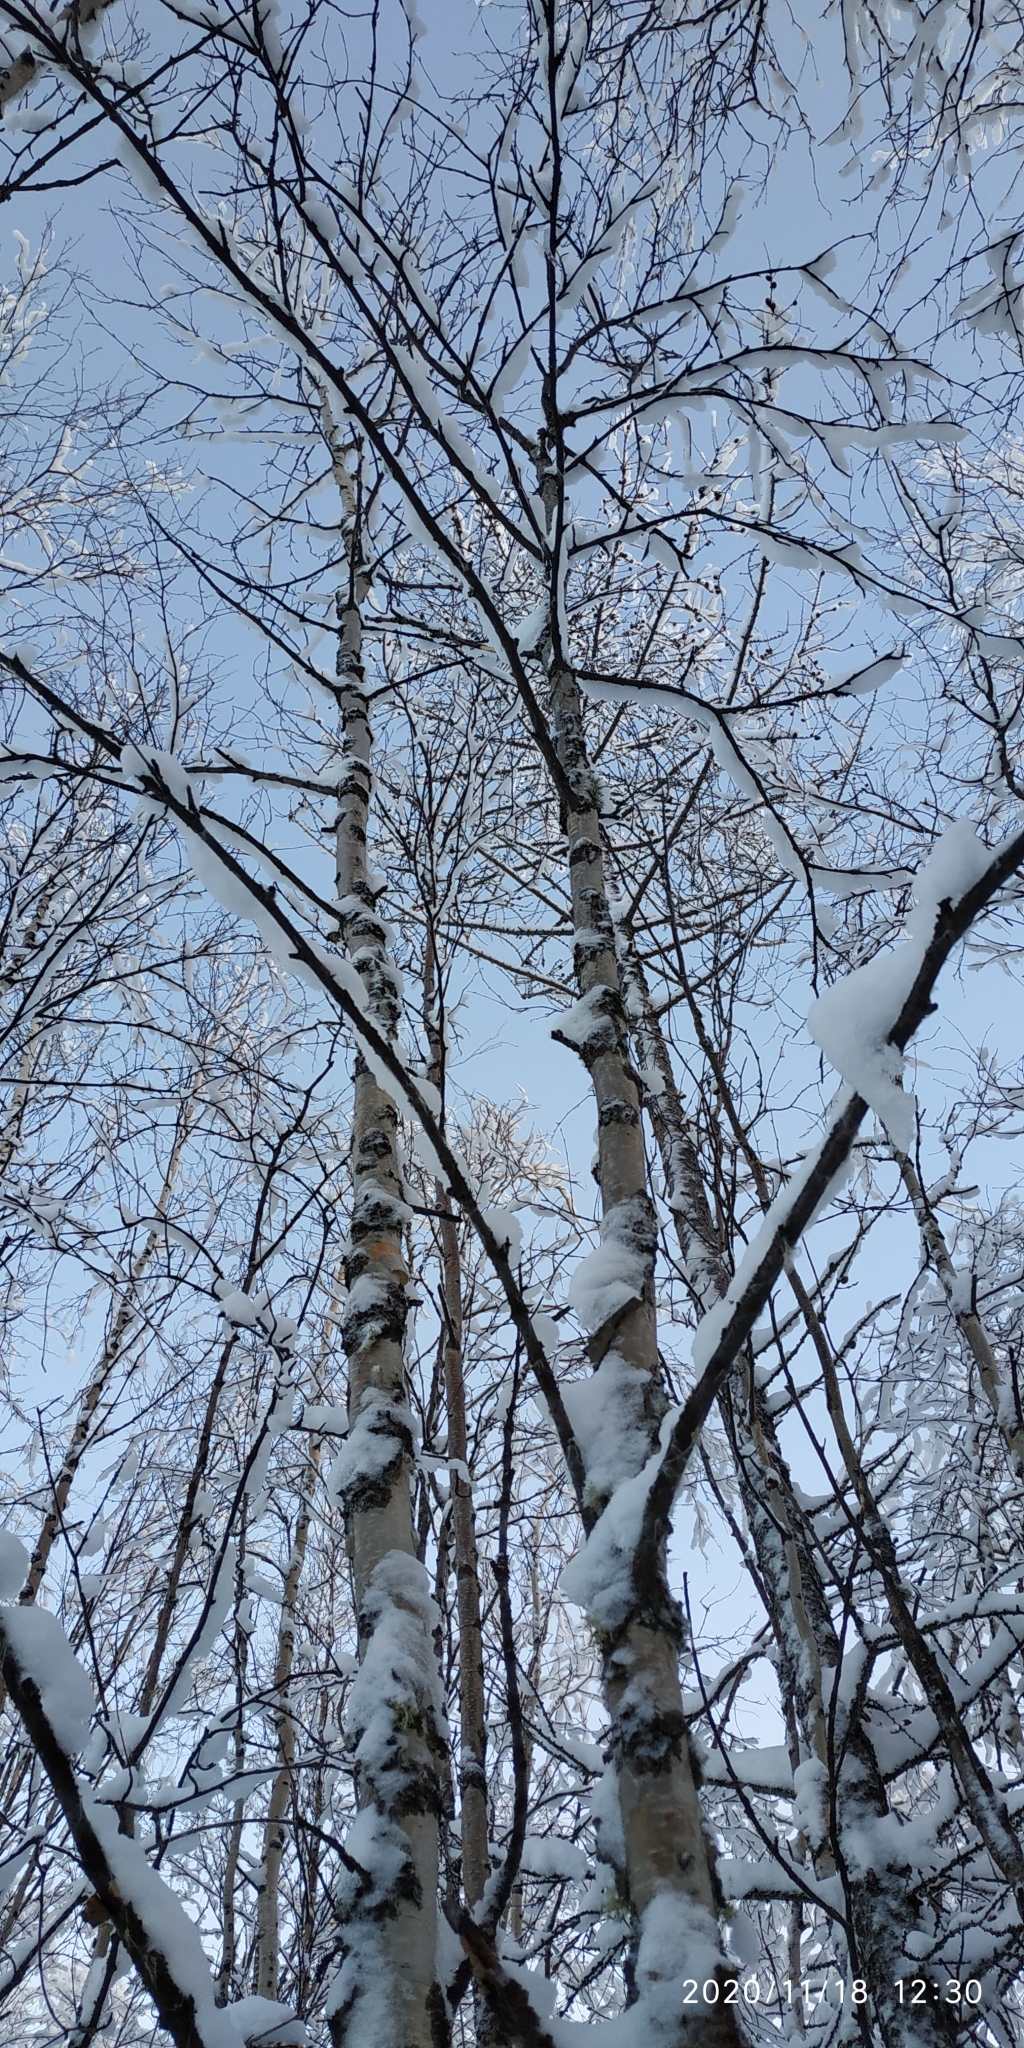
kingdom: Plantae
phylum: Tracheophyta
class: Magnoliopsida
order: Fagales
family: Betulaceae
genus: Betula
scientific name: Betula pubescens
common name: Downy birch
